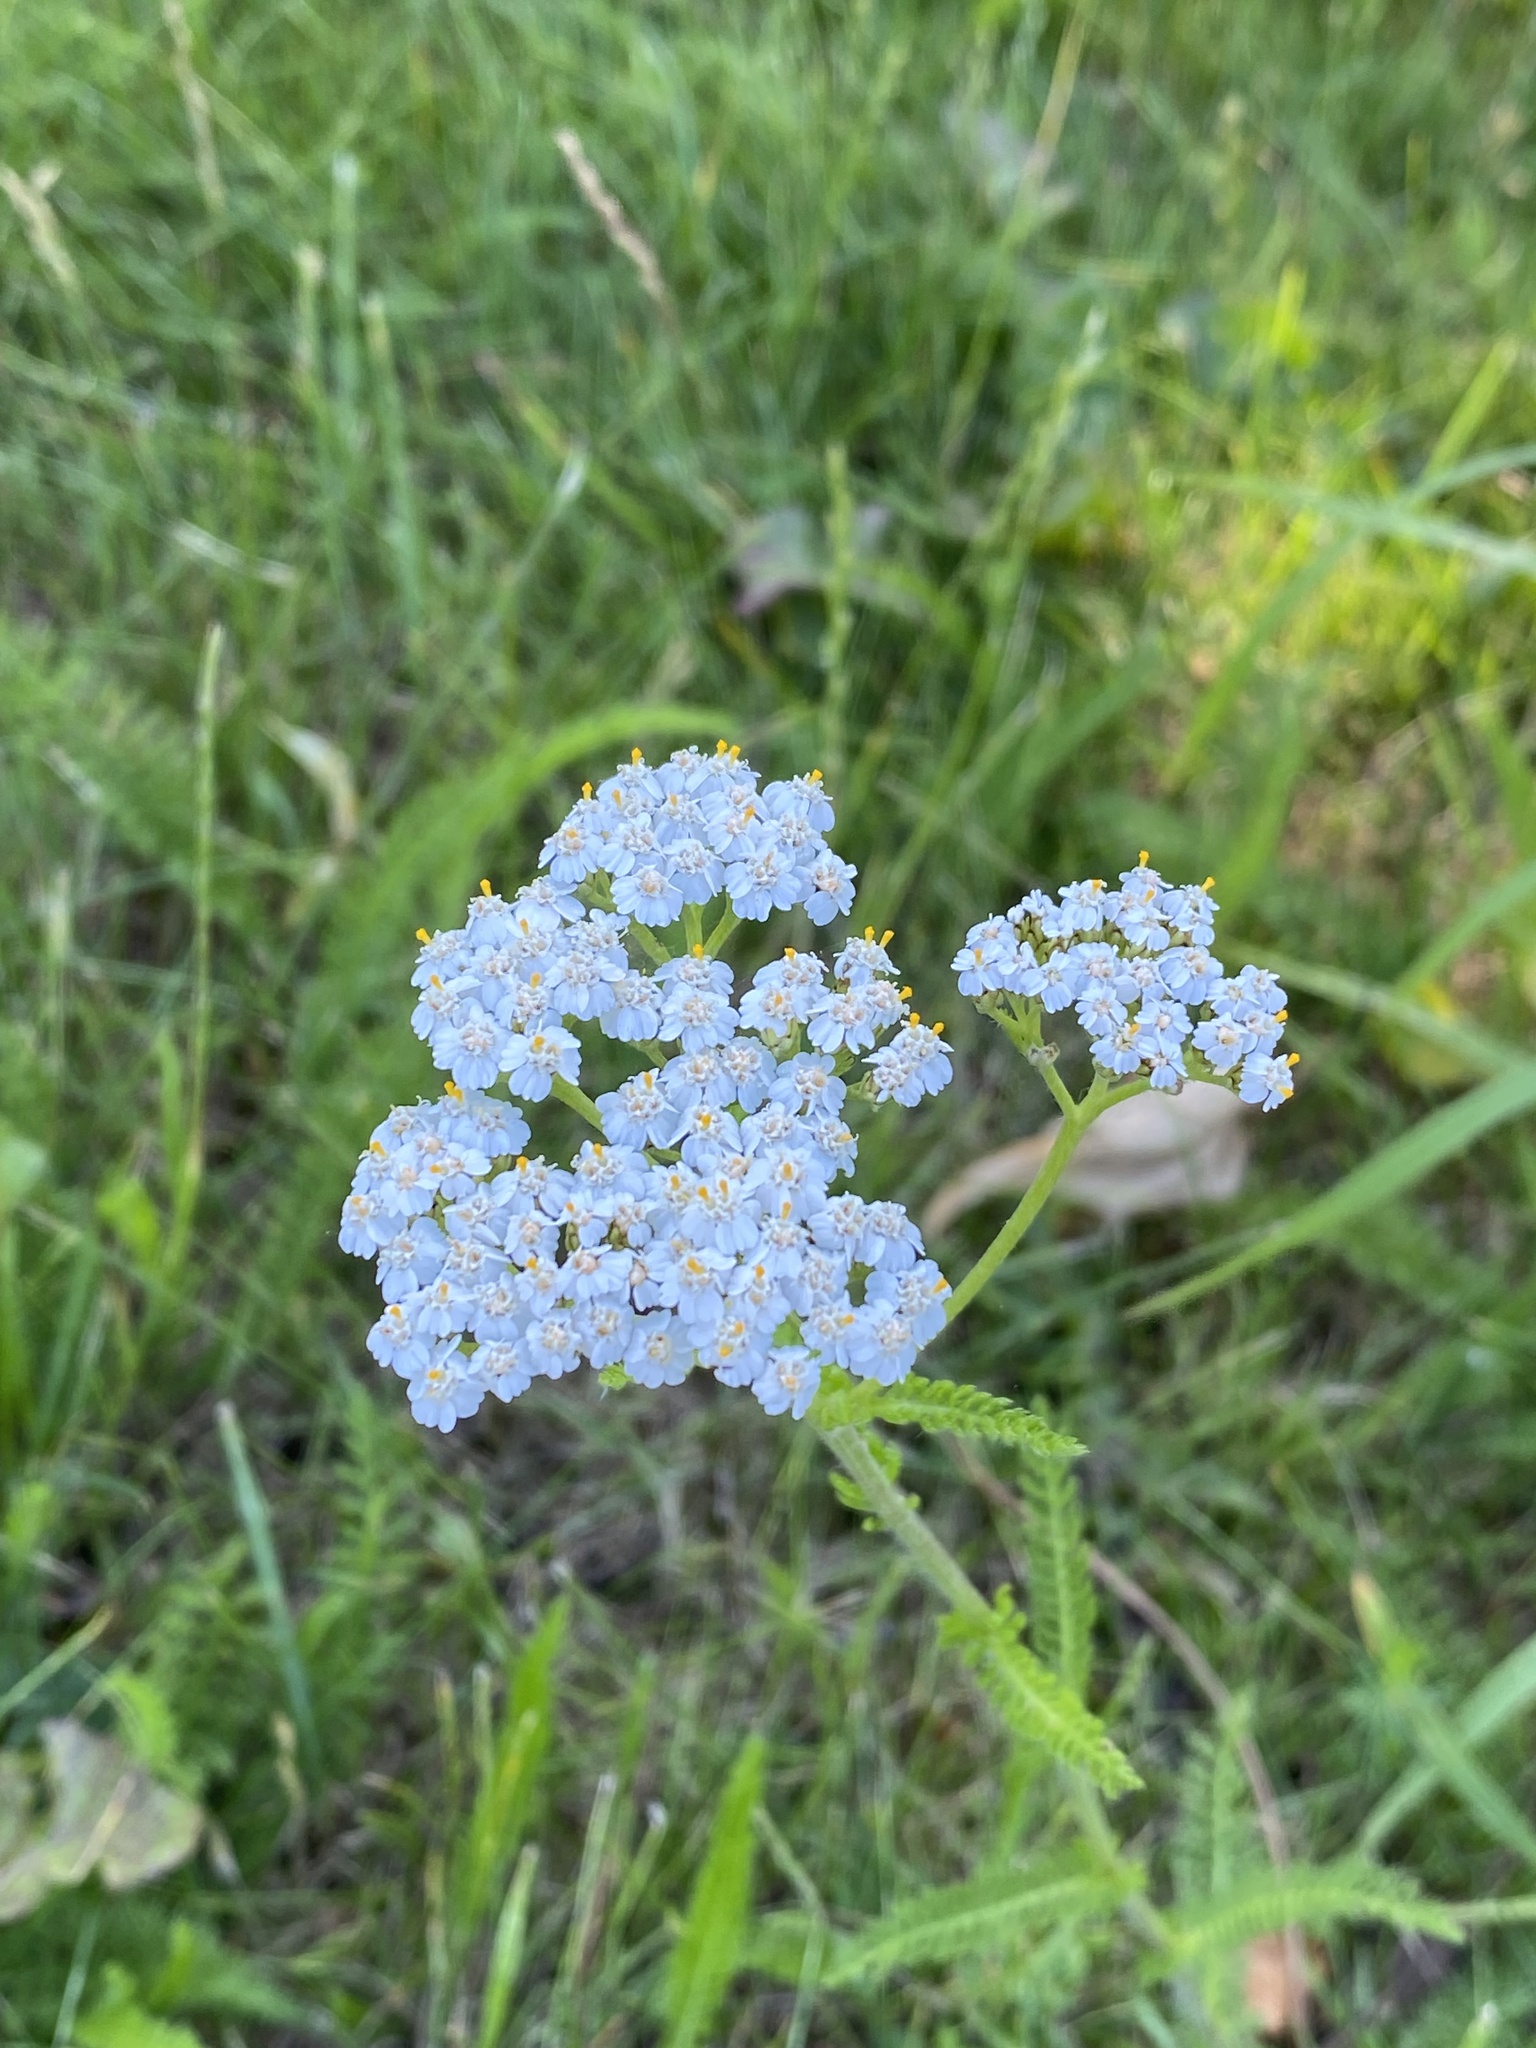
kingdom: Plantae
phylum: Tracheophyta
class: Magnoliopsida
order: Asterales
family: Asteraceae
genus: Achillea
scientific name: Achillea millefolium
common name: Yarrow
